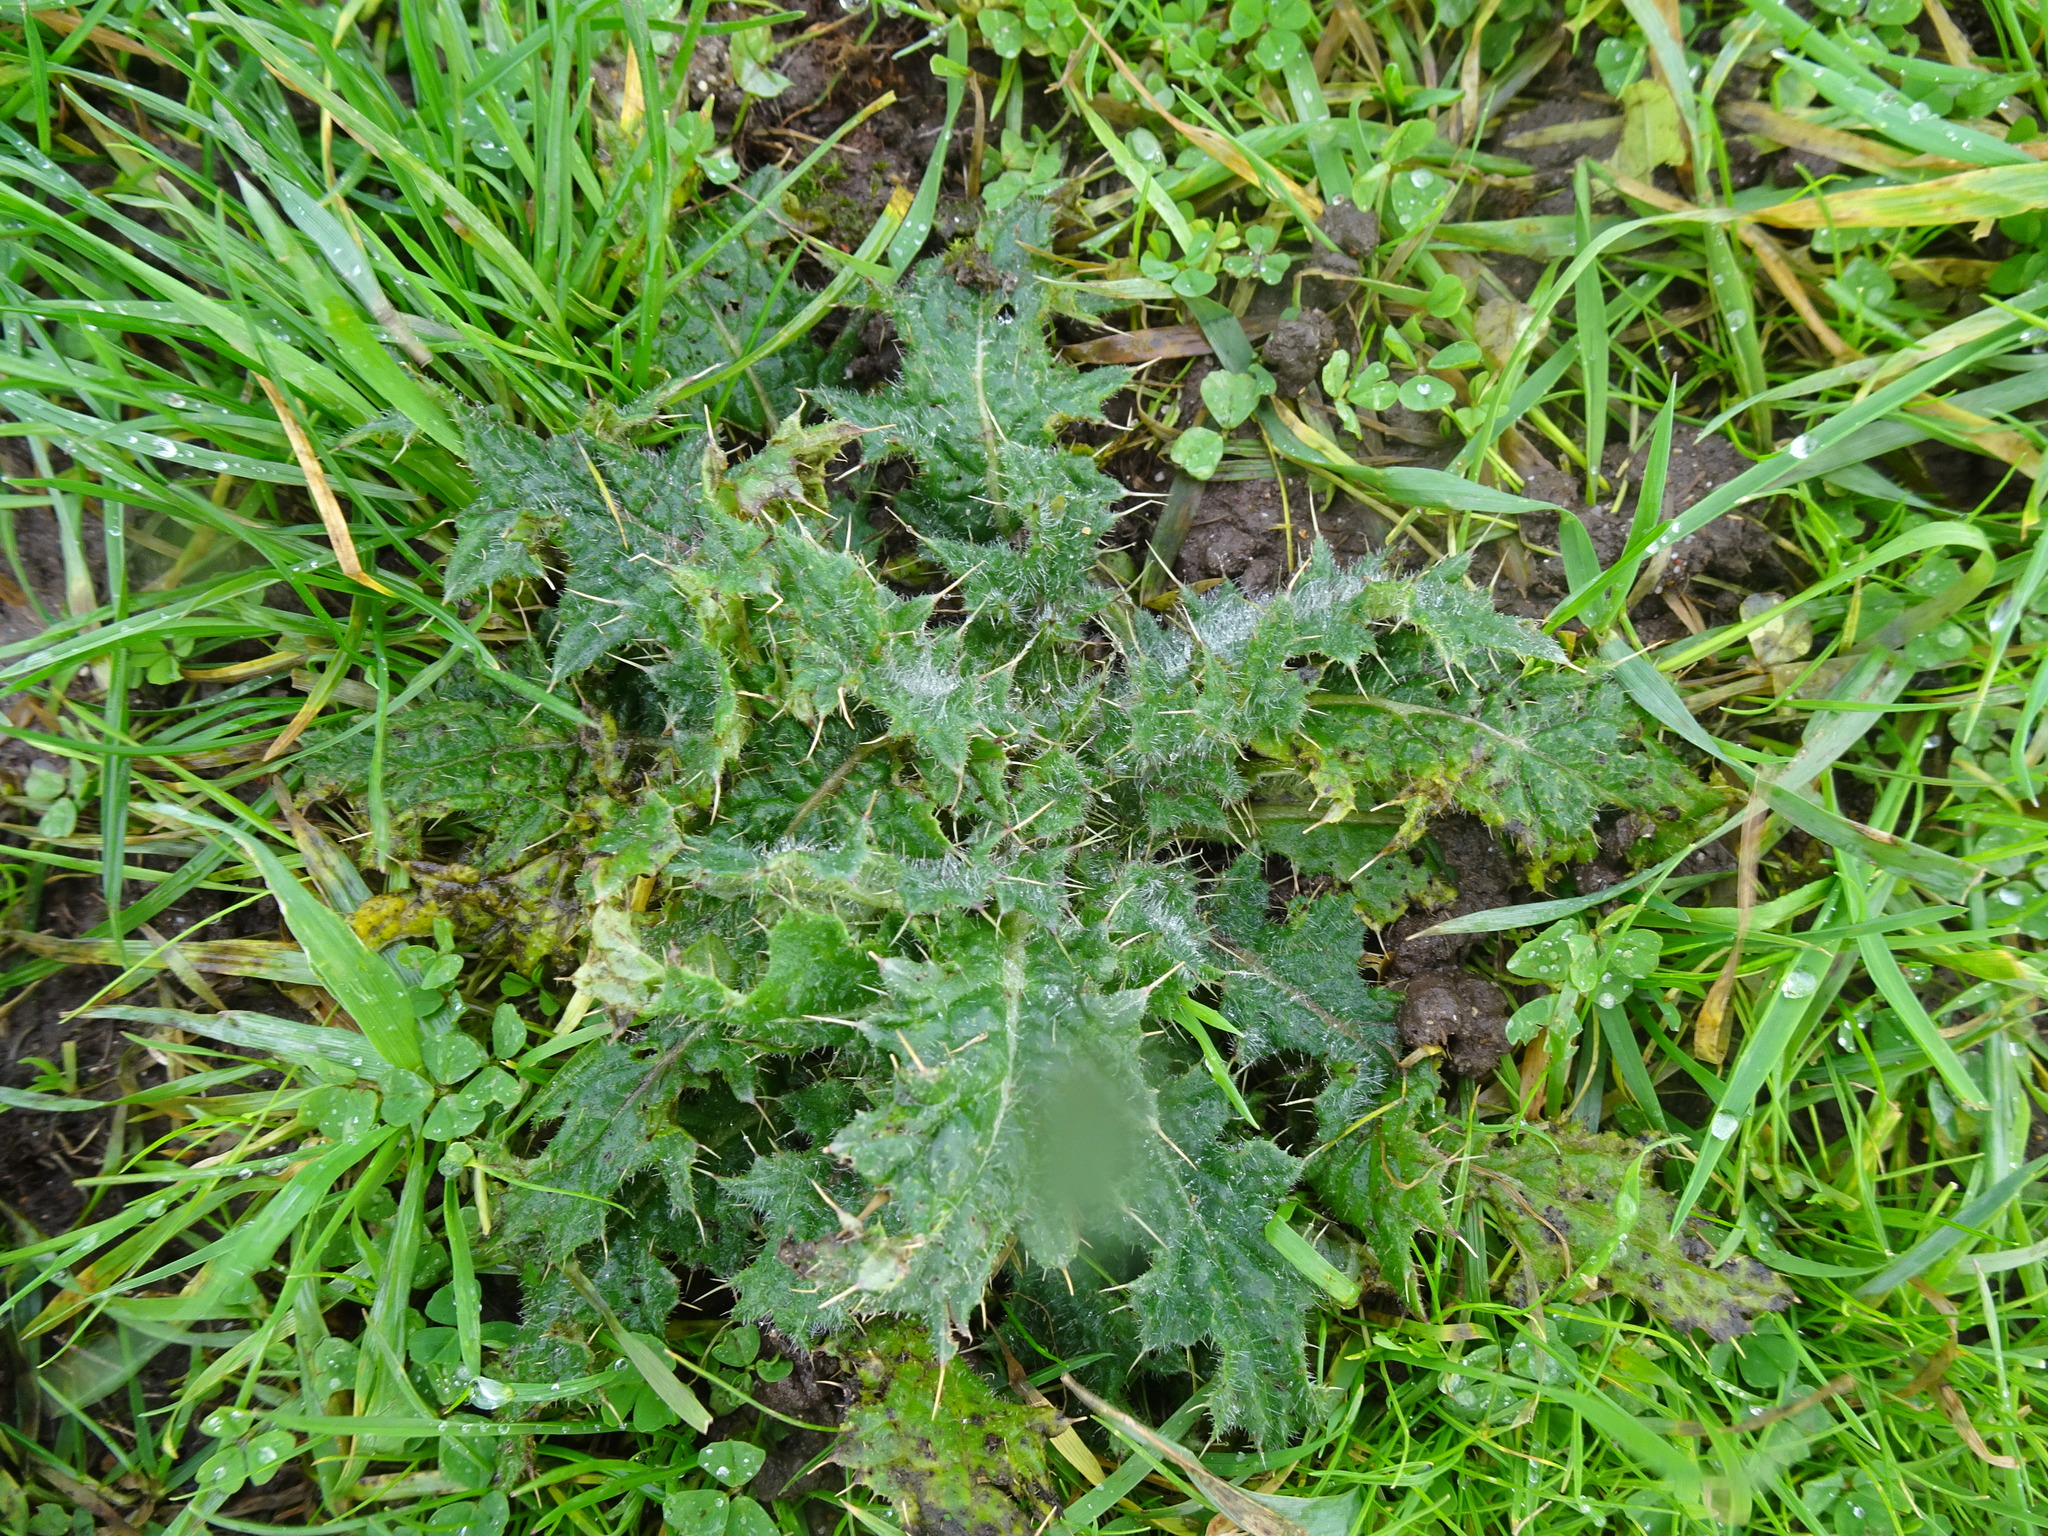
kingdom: Plantae
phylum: Tracheophyta
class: Magnoliopsida
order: Asterales
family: Asteraceae
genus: Cirsium
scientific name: Cirsium vulgare
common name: Bull thistle
